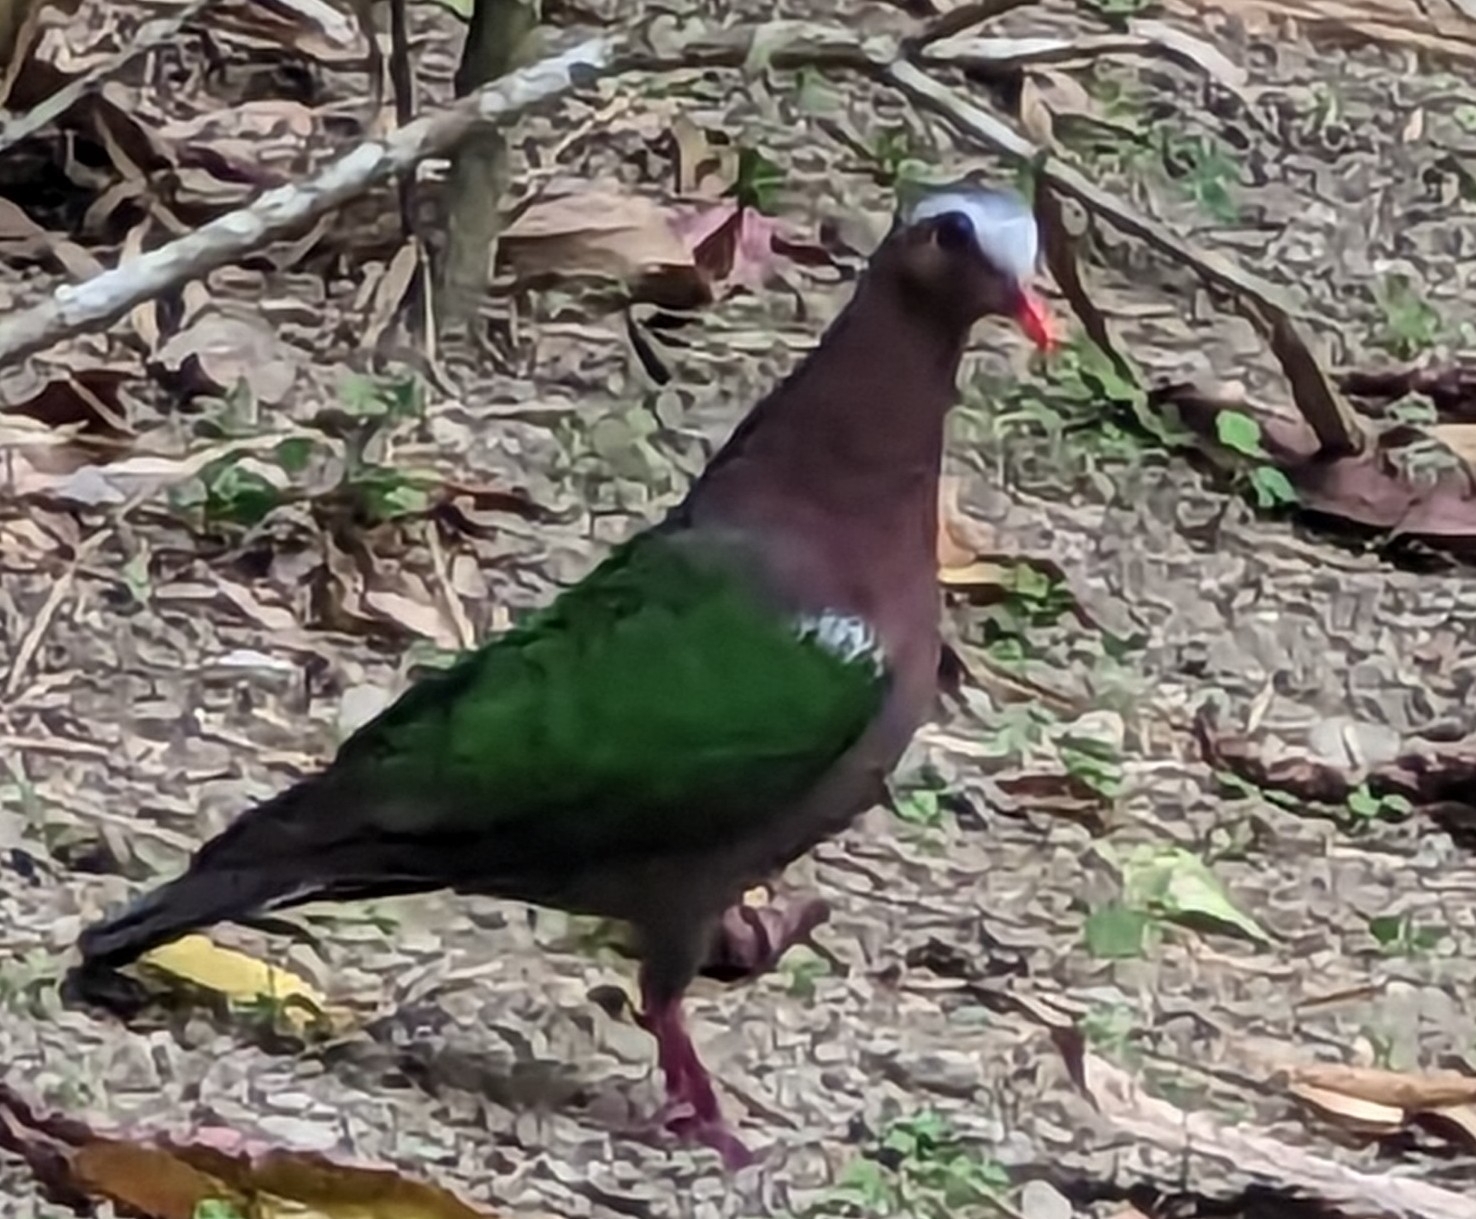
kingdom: Animalia
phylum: Chordata
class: Aves
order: Columbiformes
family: Columbidae
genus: Chalcophaps
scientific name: Chalcophaps indica
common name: Common emerald dove
